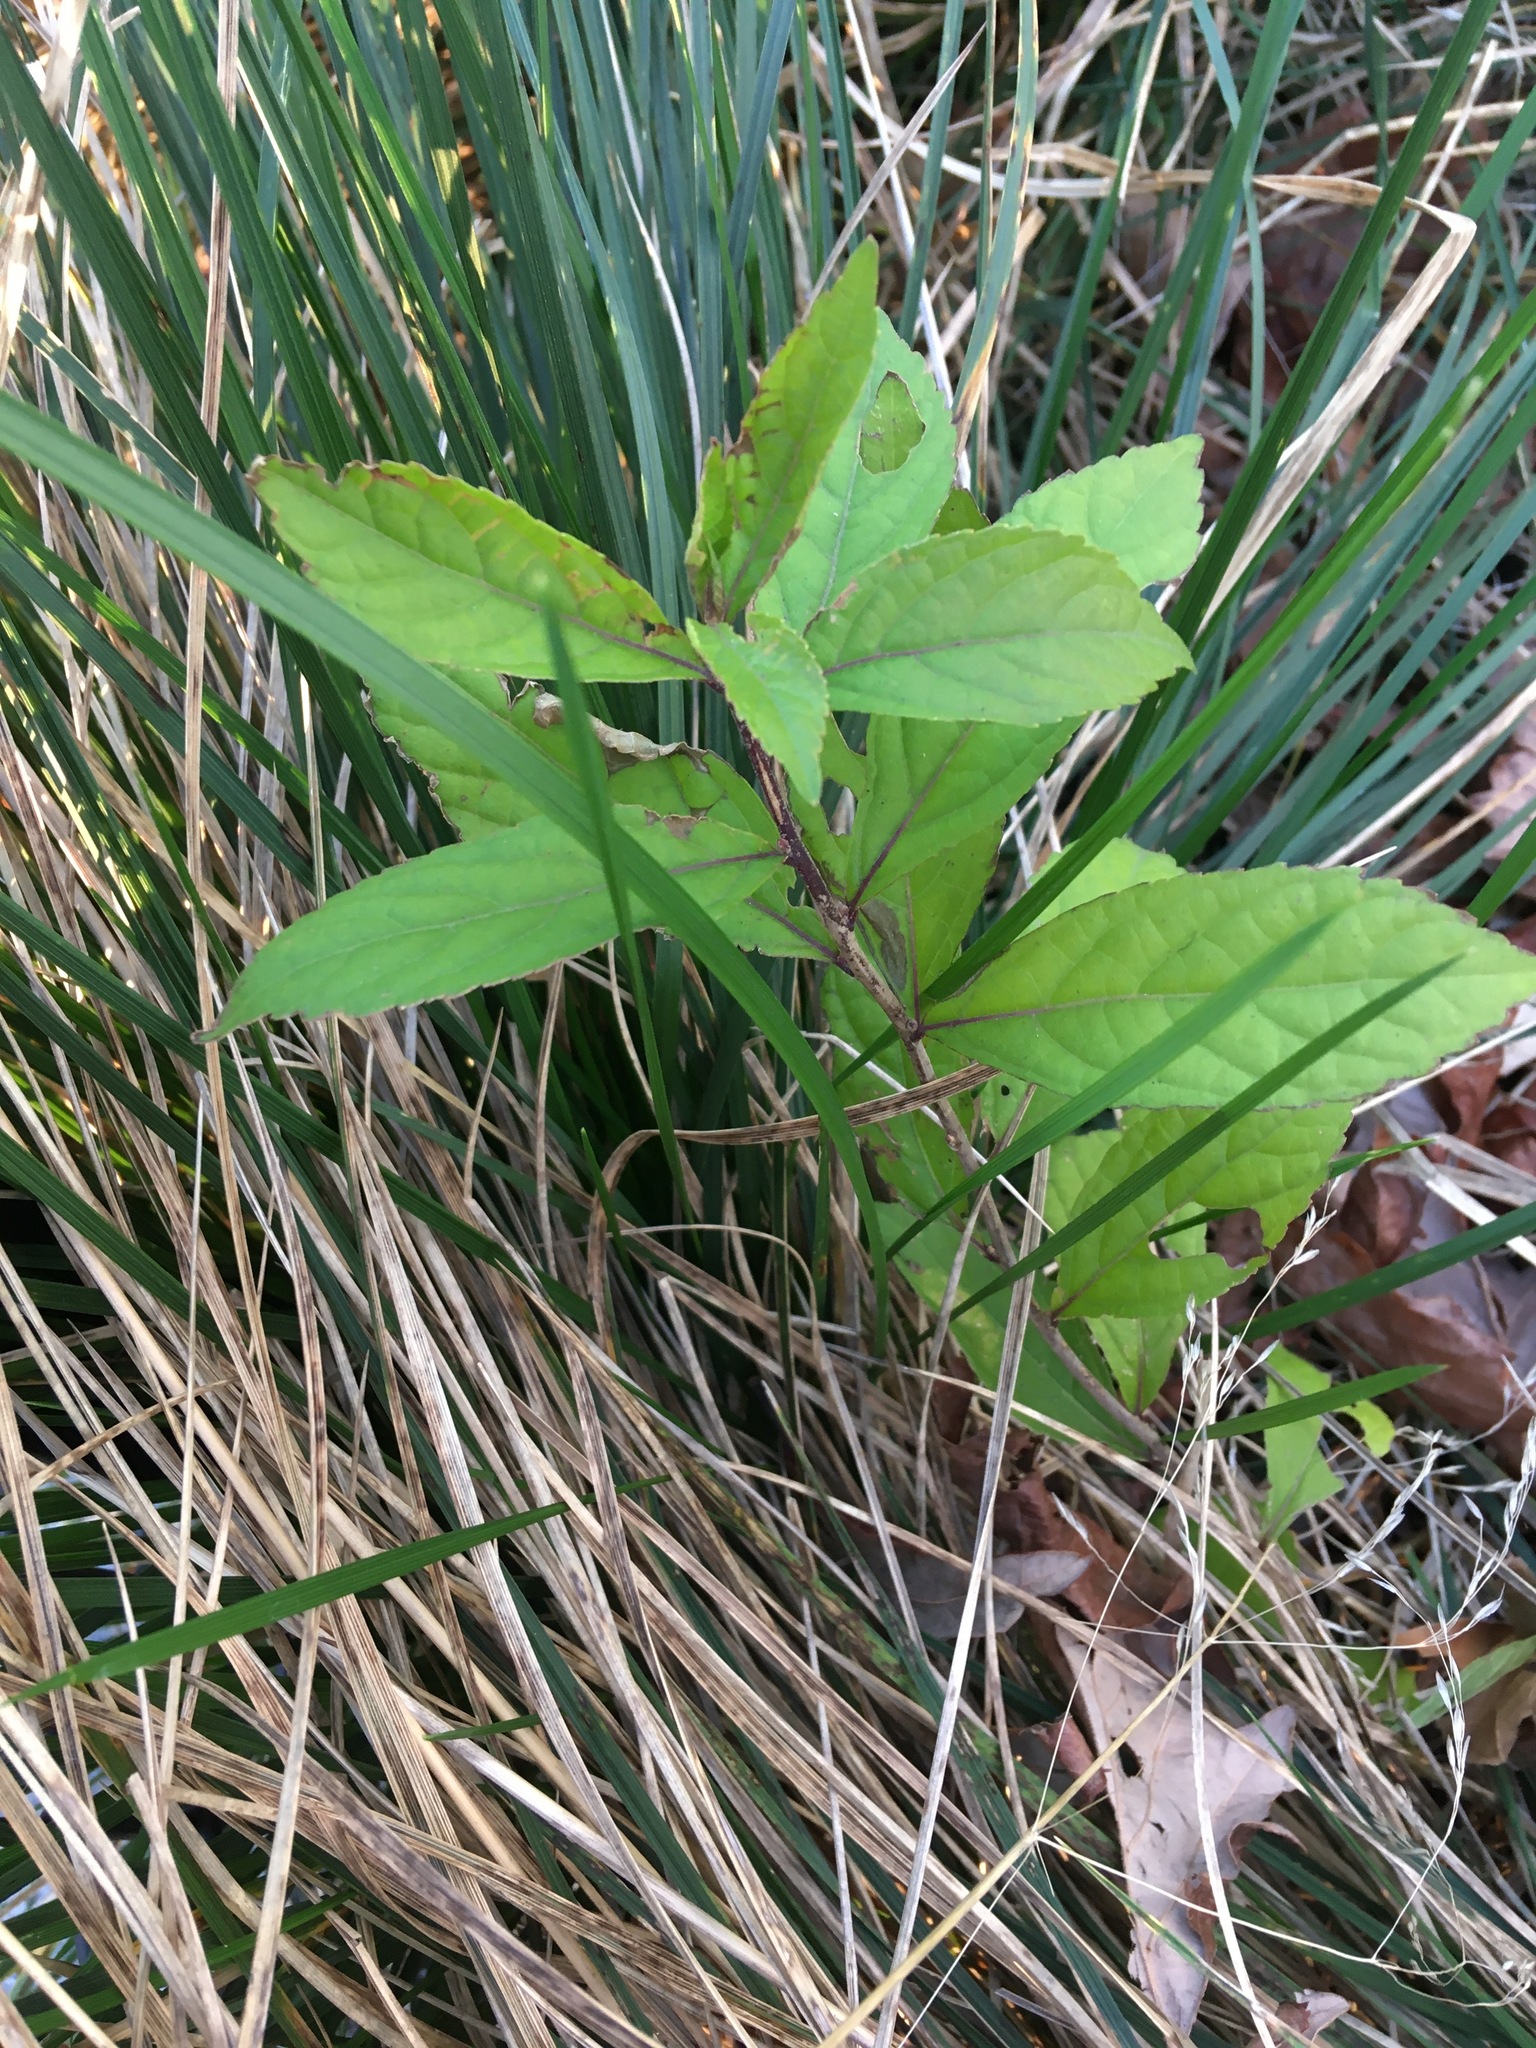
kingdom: Plantae
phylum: Tracheophyta
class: Magnoliopsida
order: Lamiales
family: Lamiaceae
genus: Callicarpa
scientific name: Callicarpa dichotoma
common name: Purple beauty-berry
